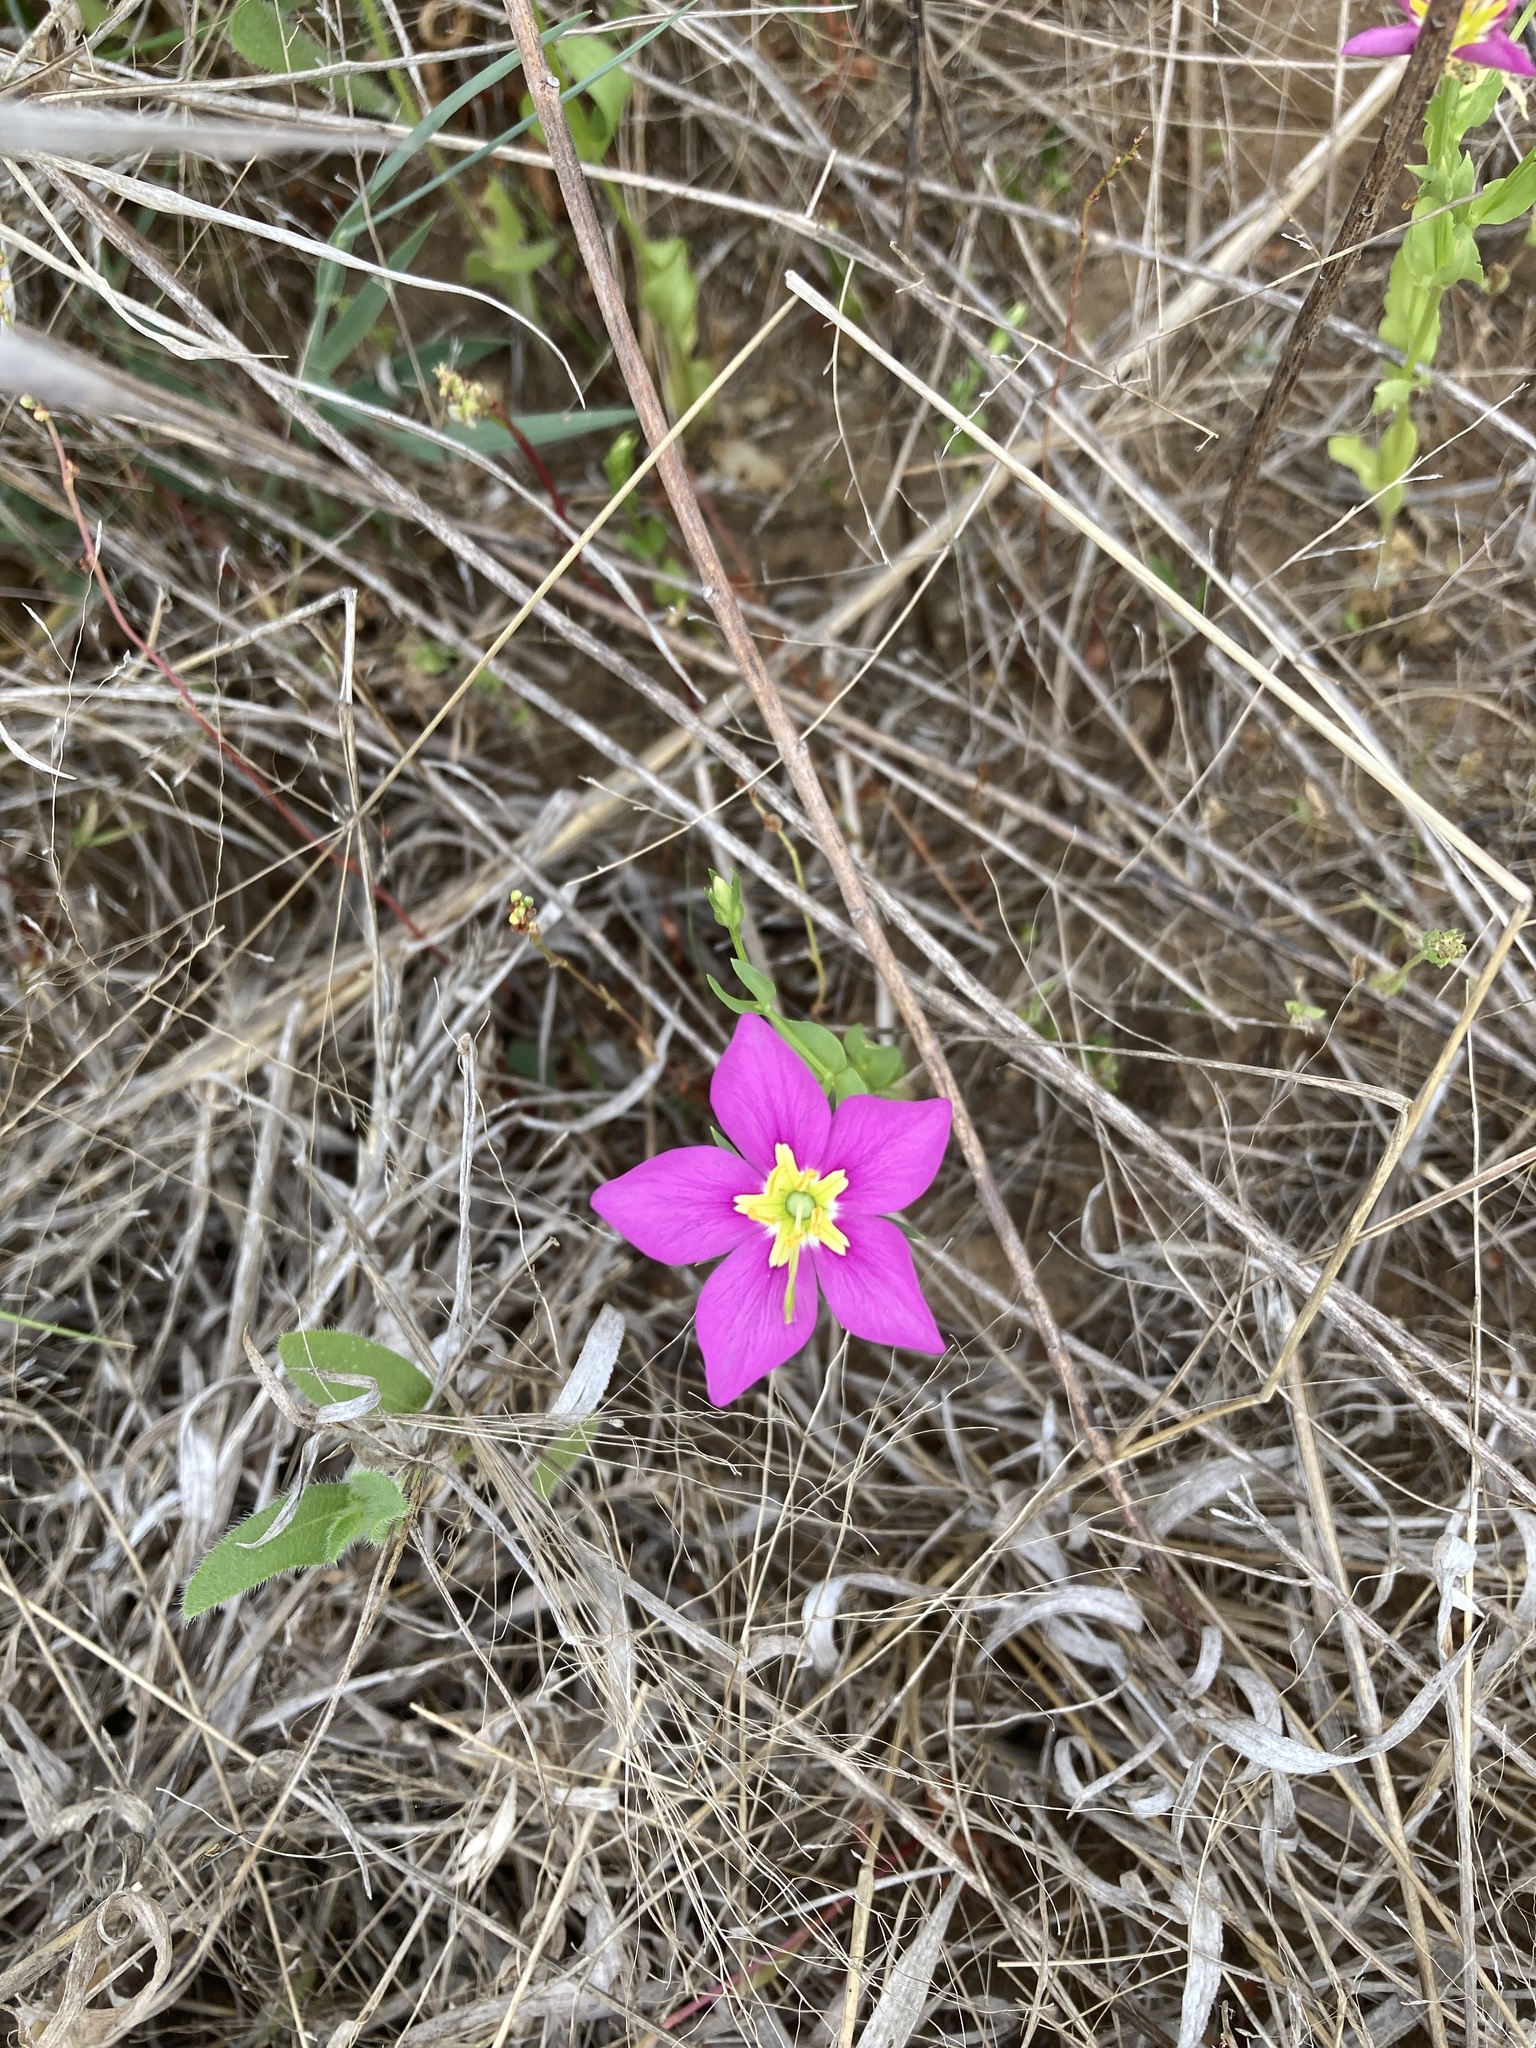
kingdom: Plantae
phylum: Tracheophyta
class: Magnoliopsida
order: Gentianales
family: Gentianaceae
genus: Sabatia
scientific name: Sabatia campestris
